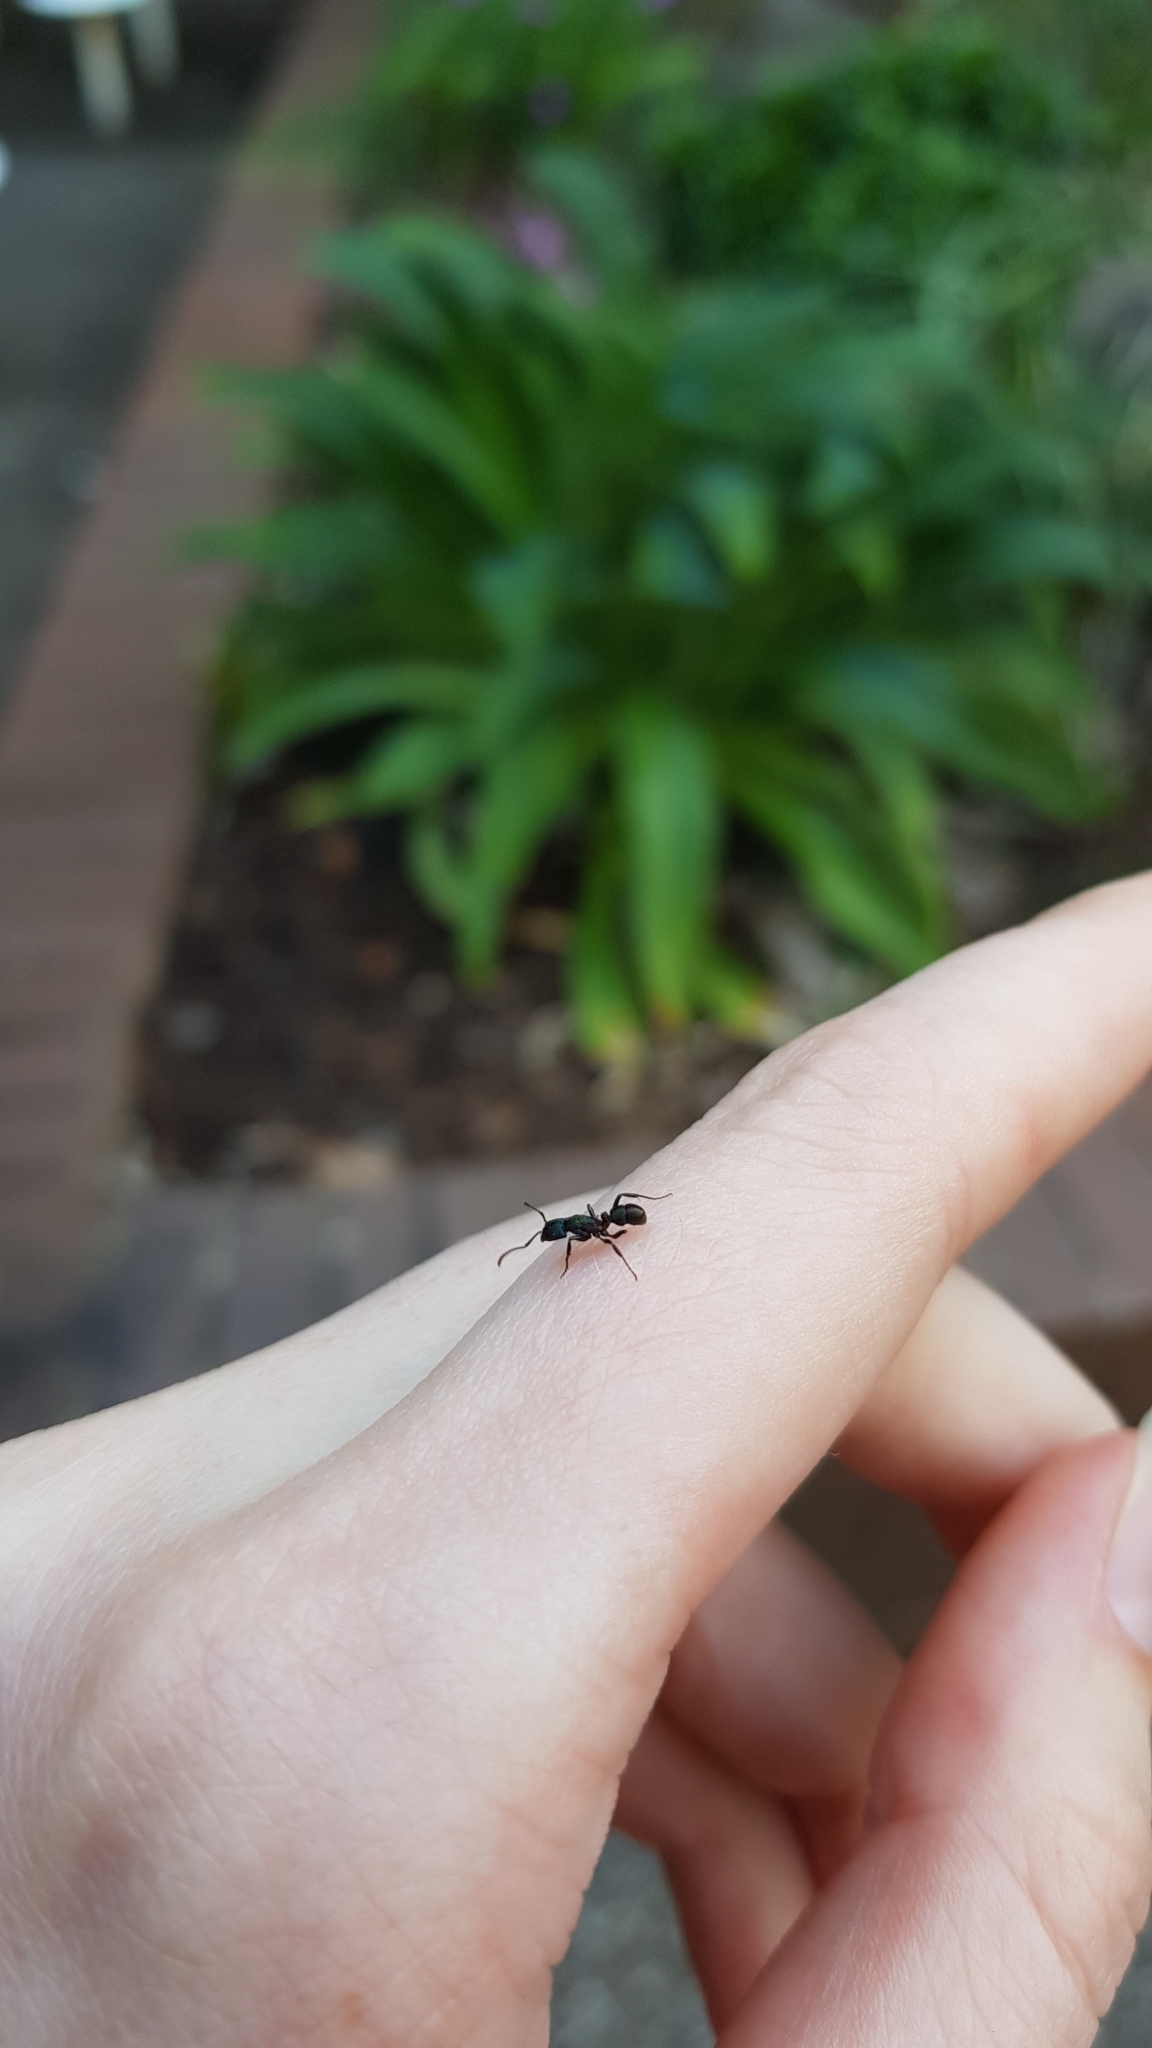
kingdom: Animalia
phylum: Arthropoda
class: Insecta
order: Hymenoptera
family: Formicidae
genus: Rhytidoponera
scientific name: Rhytidoponera metallica
